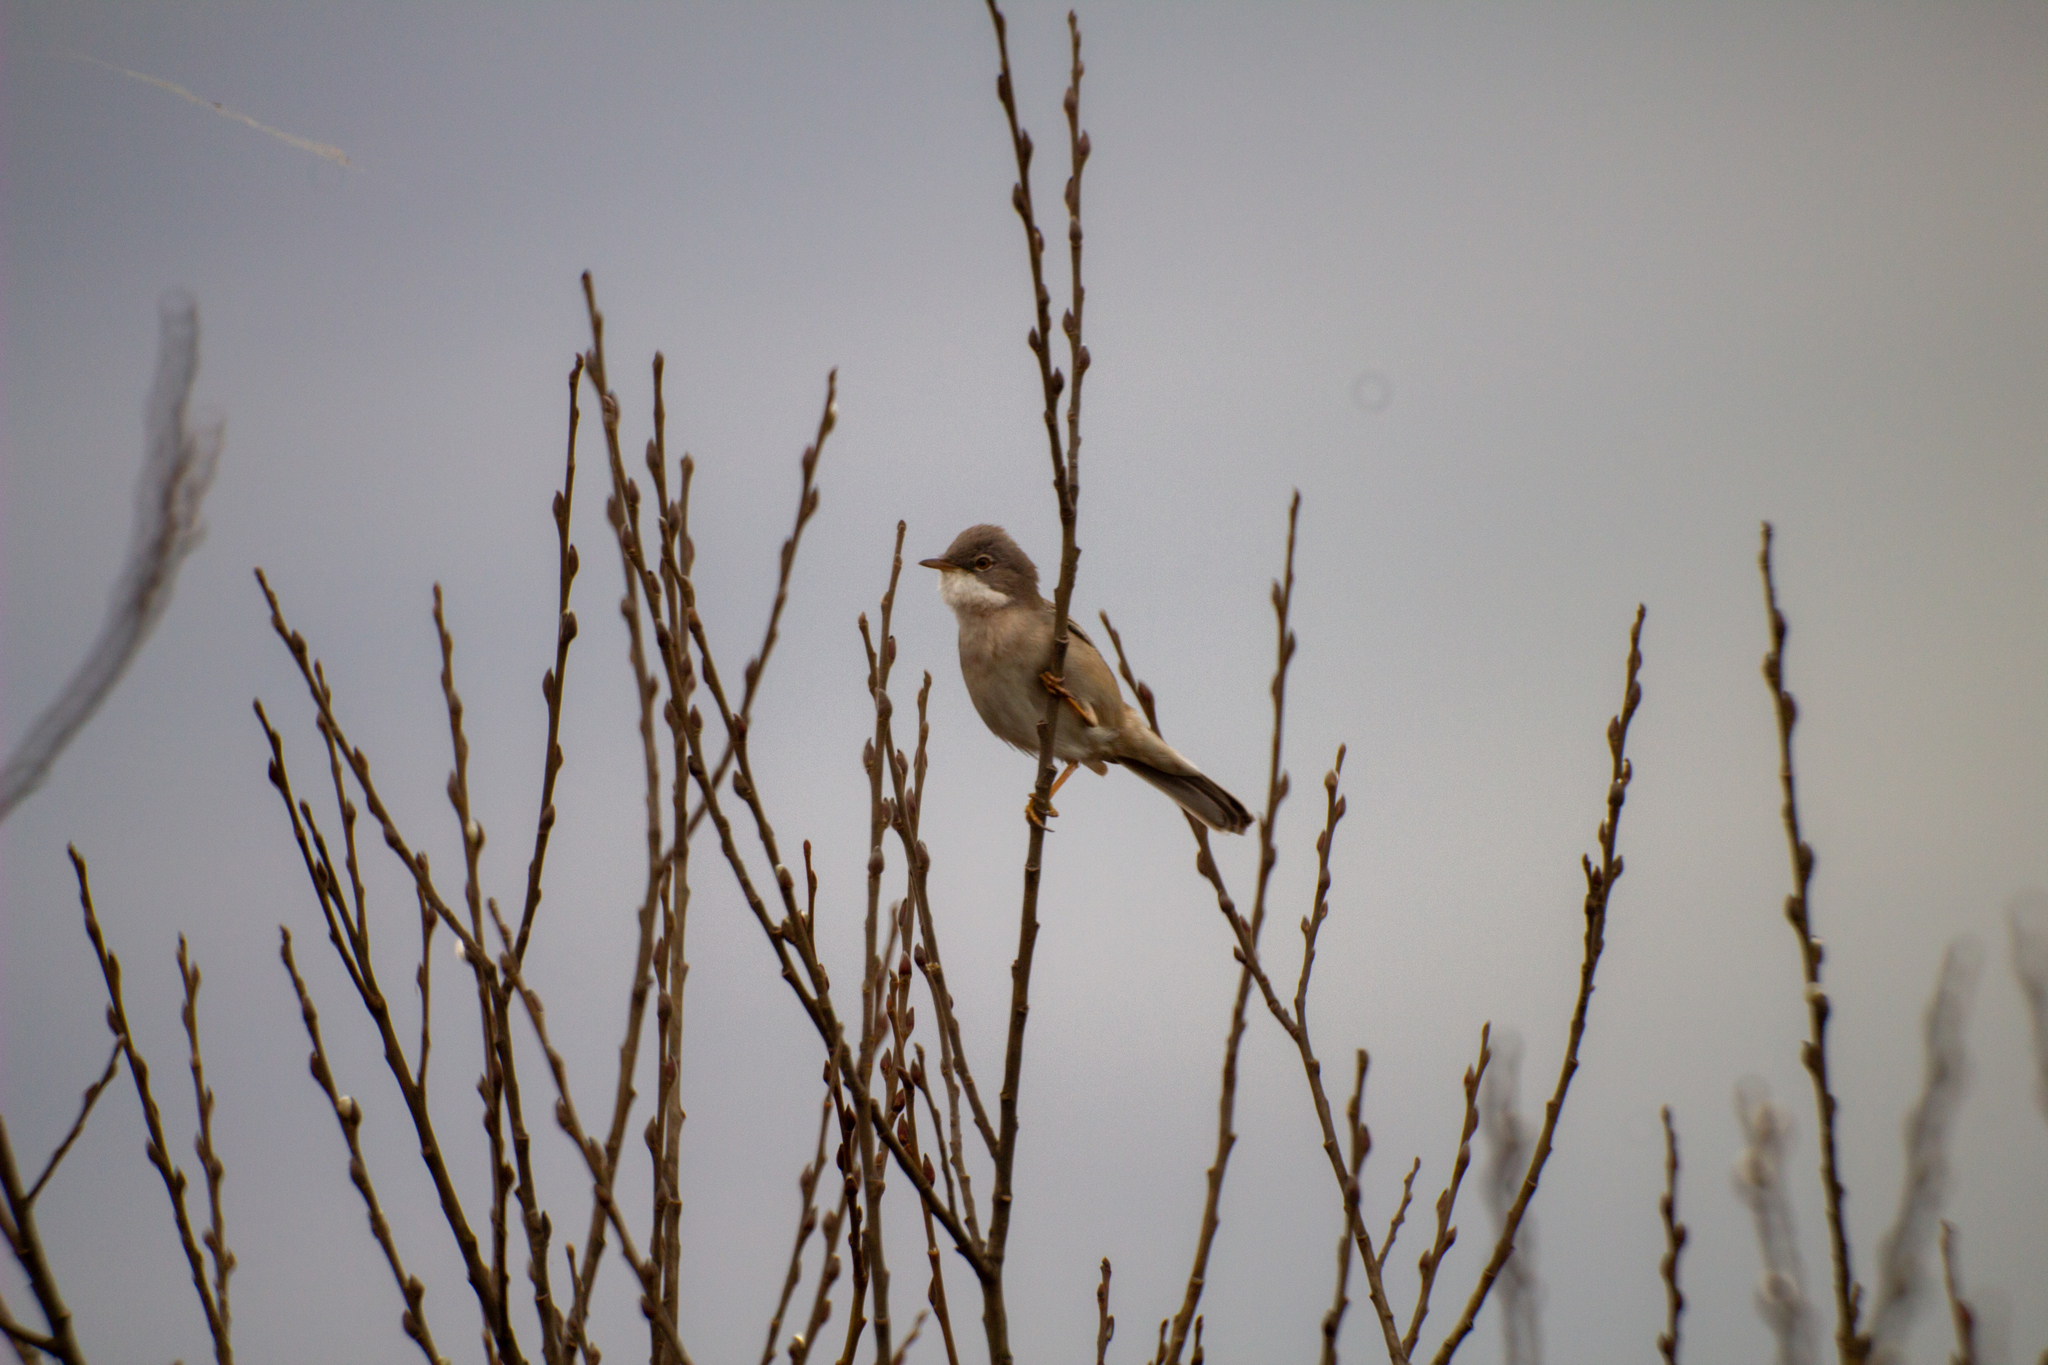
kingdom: Animalia
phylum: Chordata
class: Aves
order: Passeriformes
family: Sylviidae
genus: Sylvia
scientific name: Sylvia communis
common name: Common whitethroat
